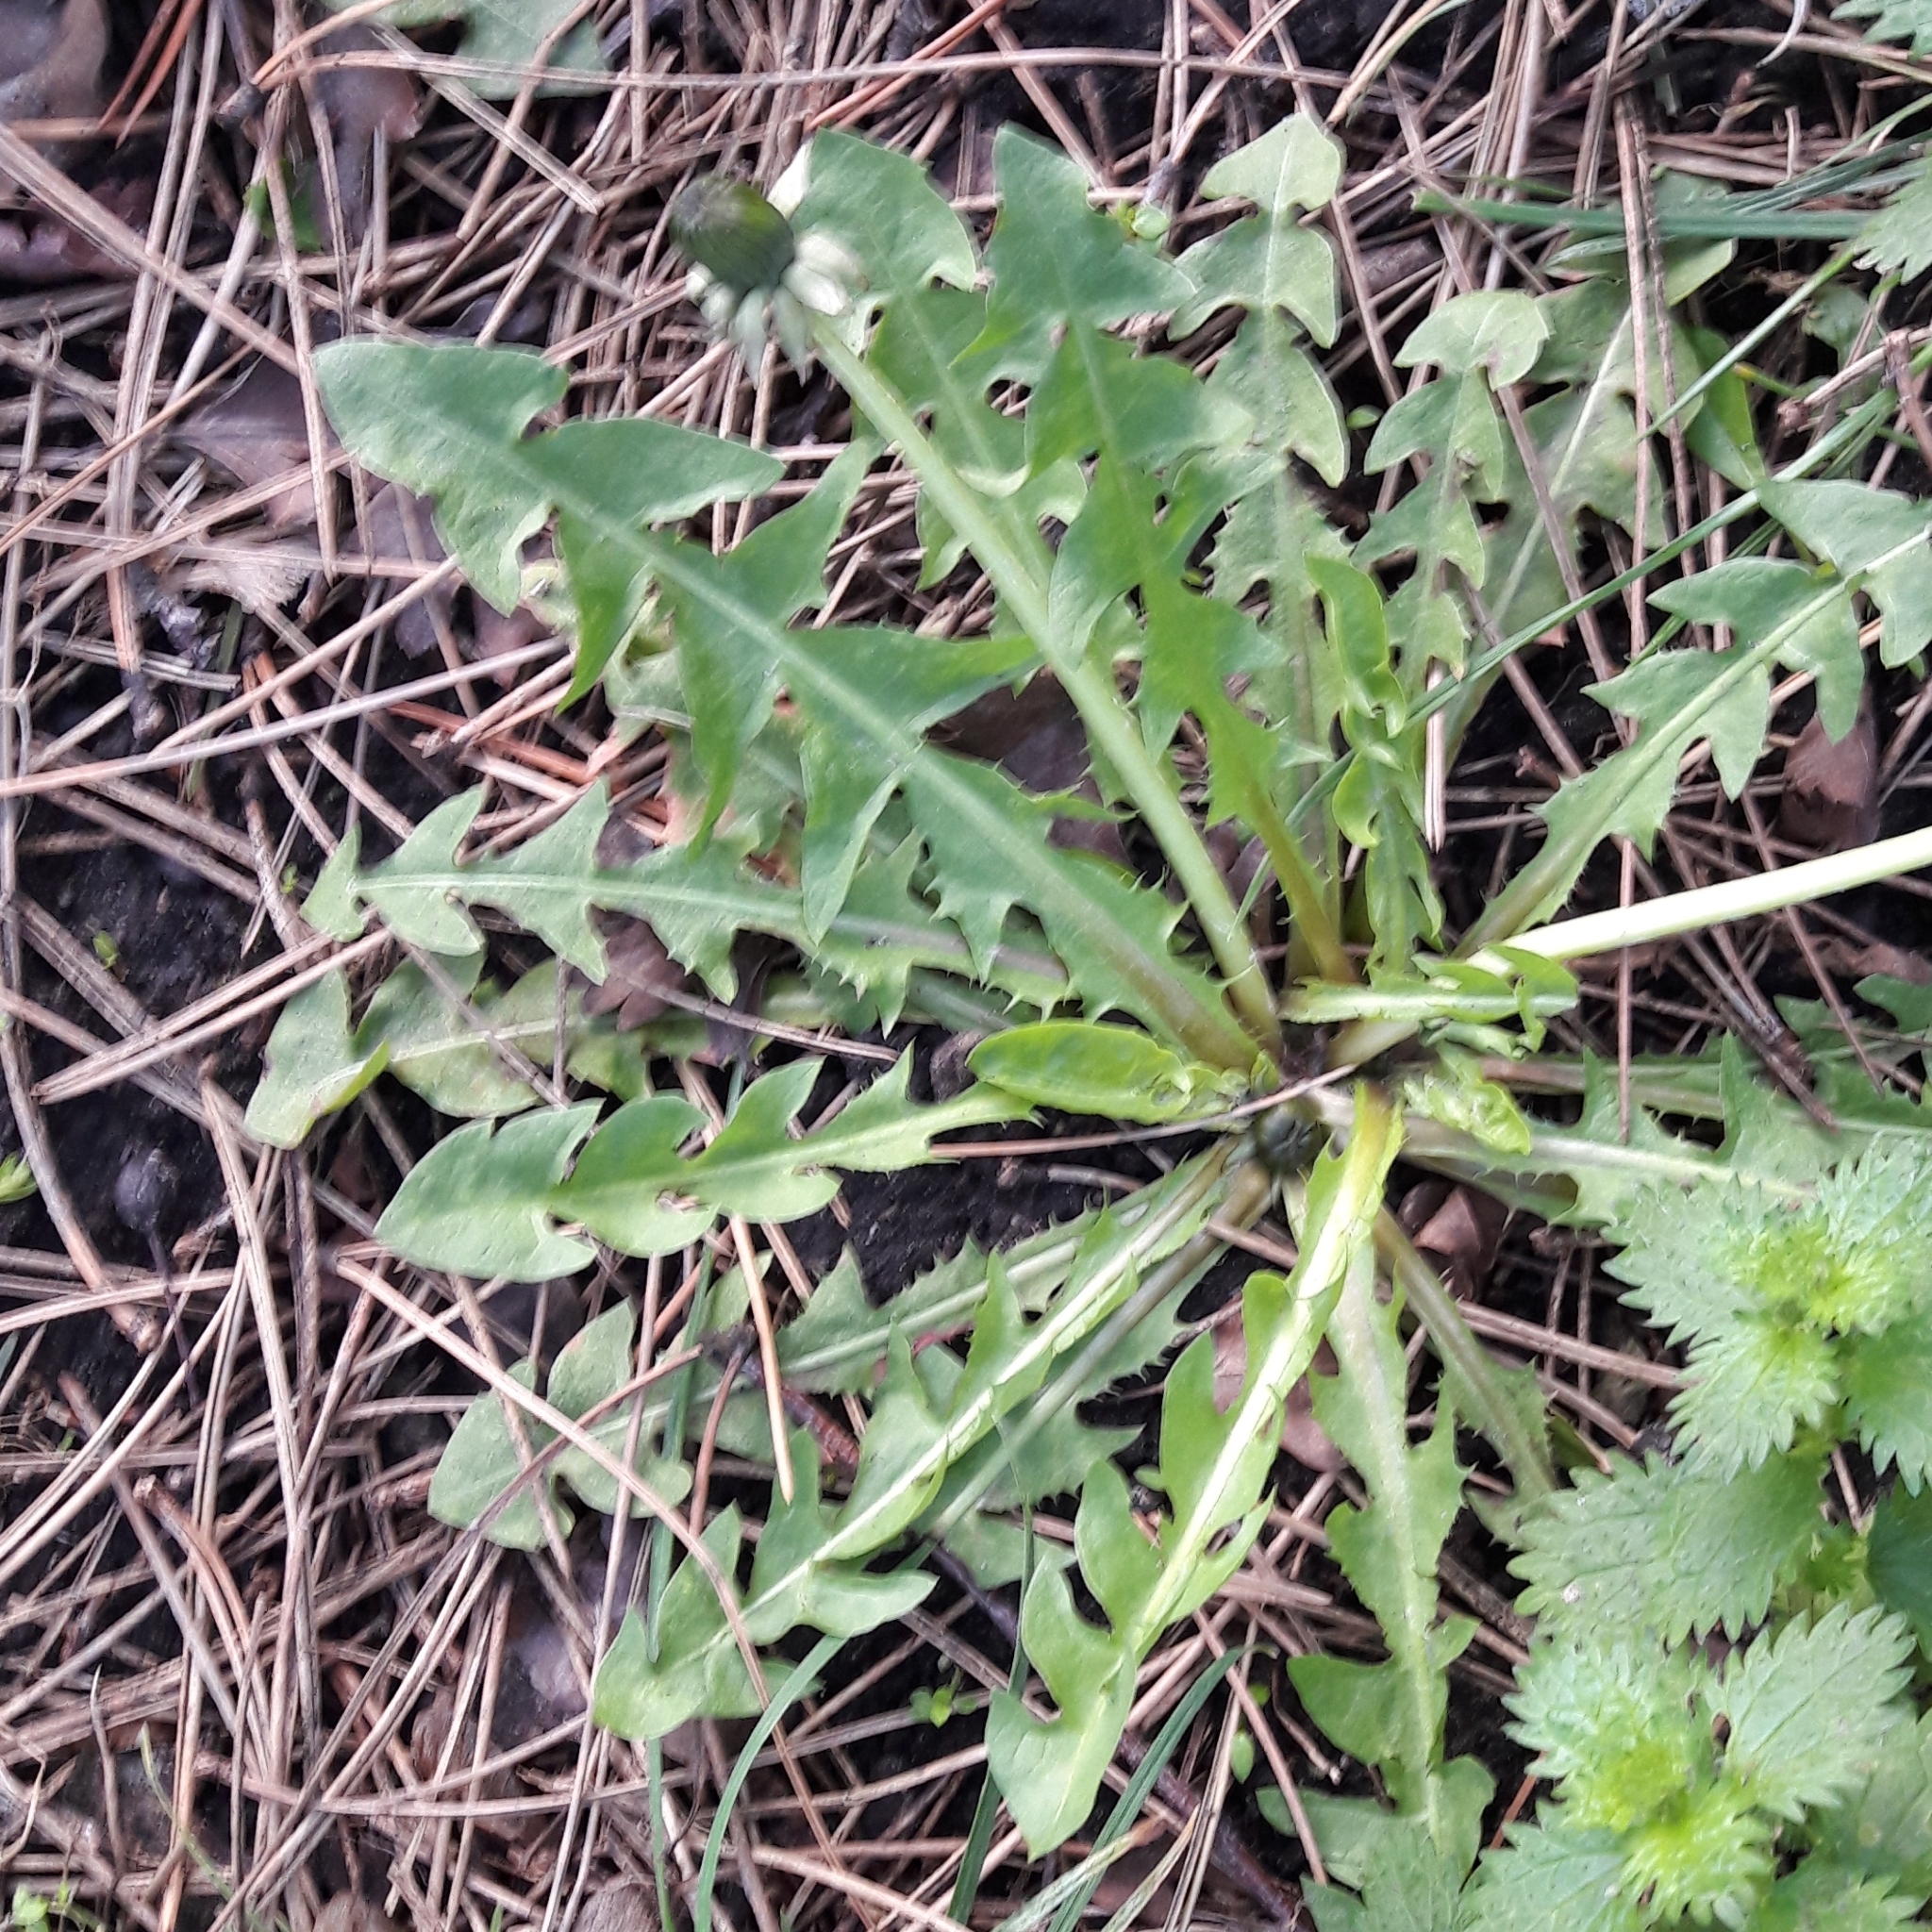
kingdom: Plantae
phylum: Tracheophyta
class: Magnoliopsida
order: Asterales
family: Asteraceae
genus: Taraxacum
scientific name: Taraxacum officinale
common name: Common dandelion
